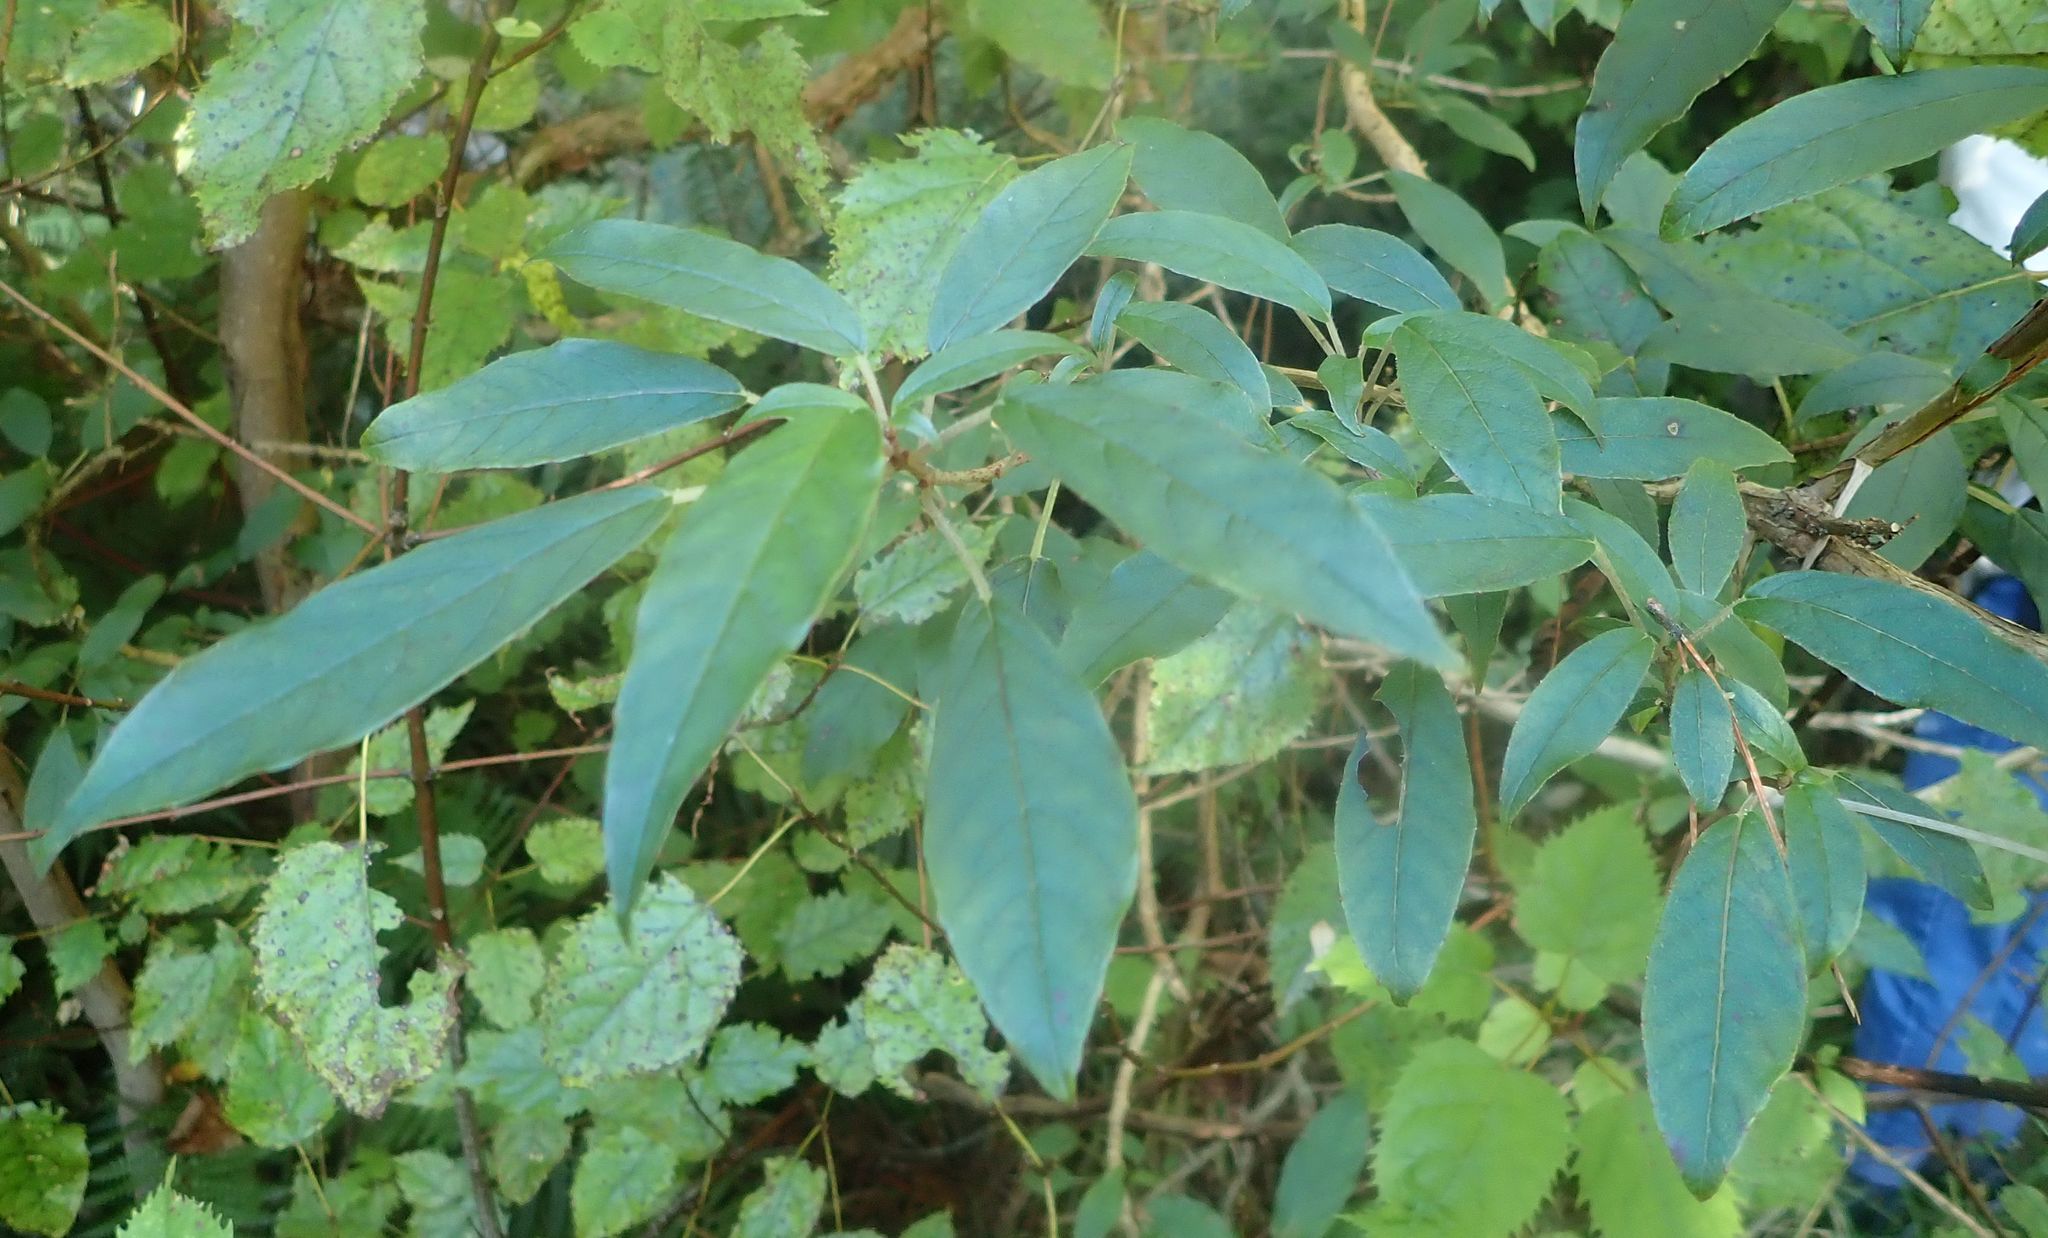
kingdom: Plantae
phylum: Tracheophyta
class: Magnoliopsida
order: Myrtales
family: Onagraceae
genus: Fuchsia
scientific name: Fuchsia excorticata
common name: Tree fuchsia
